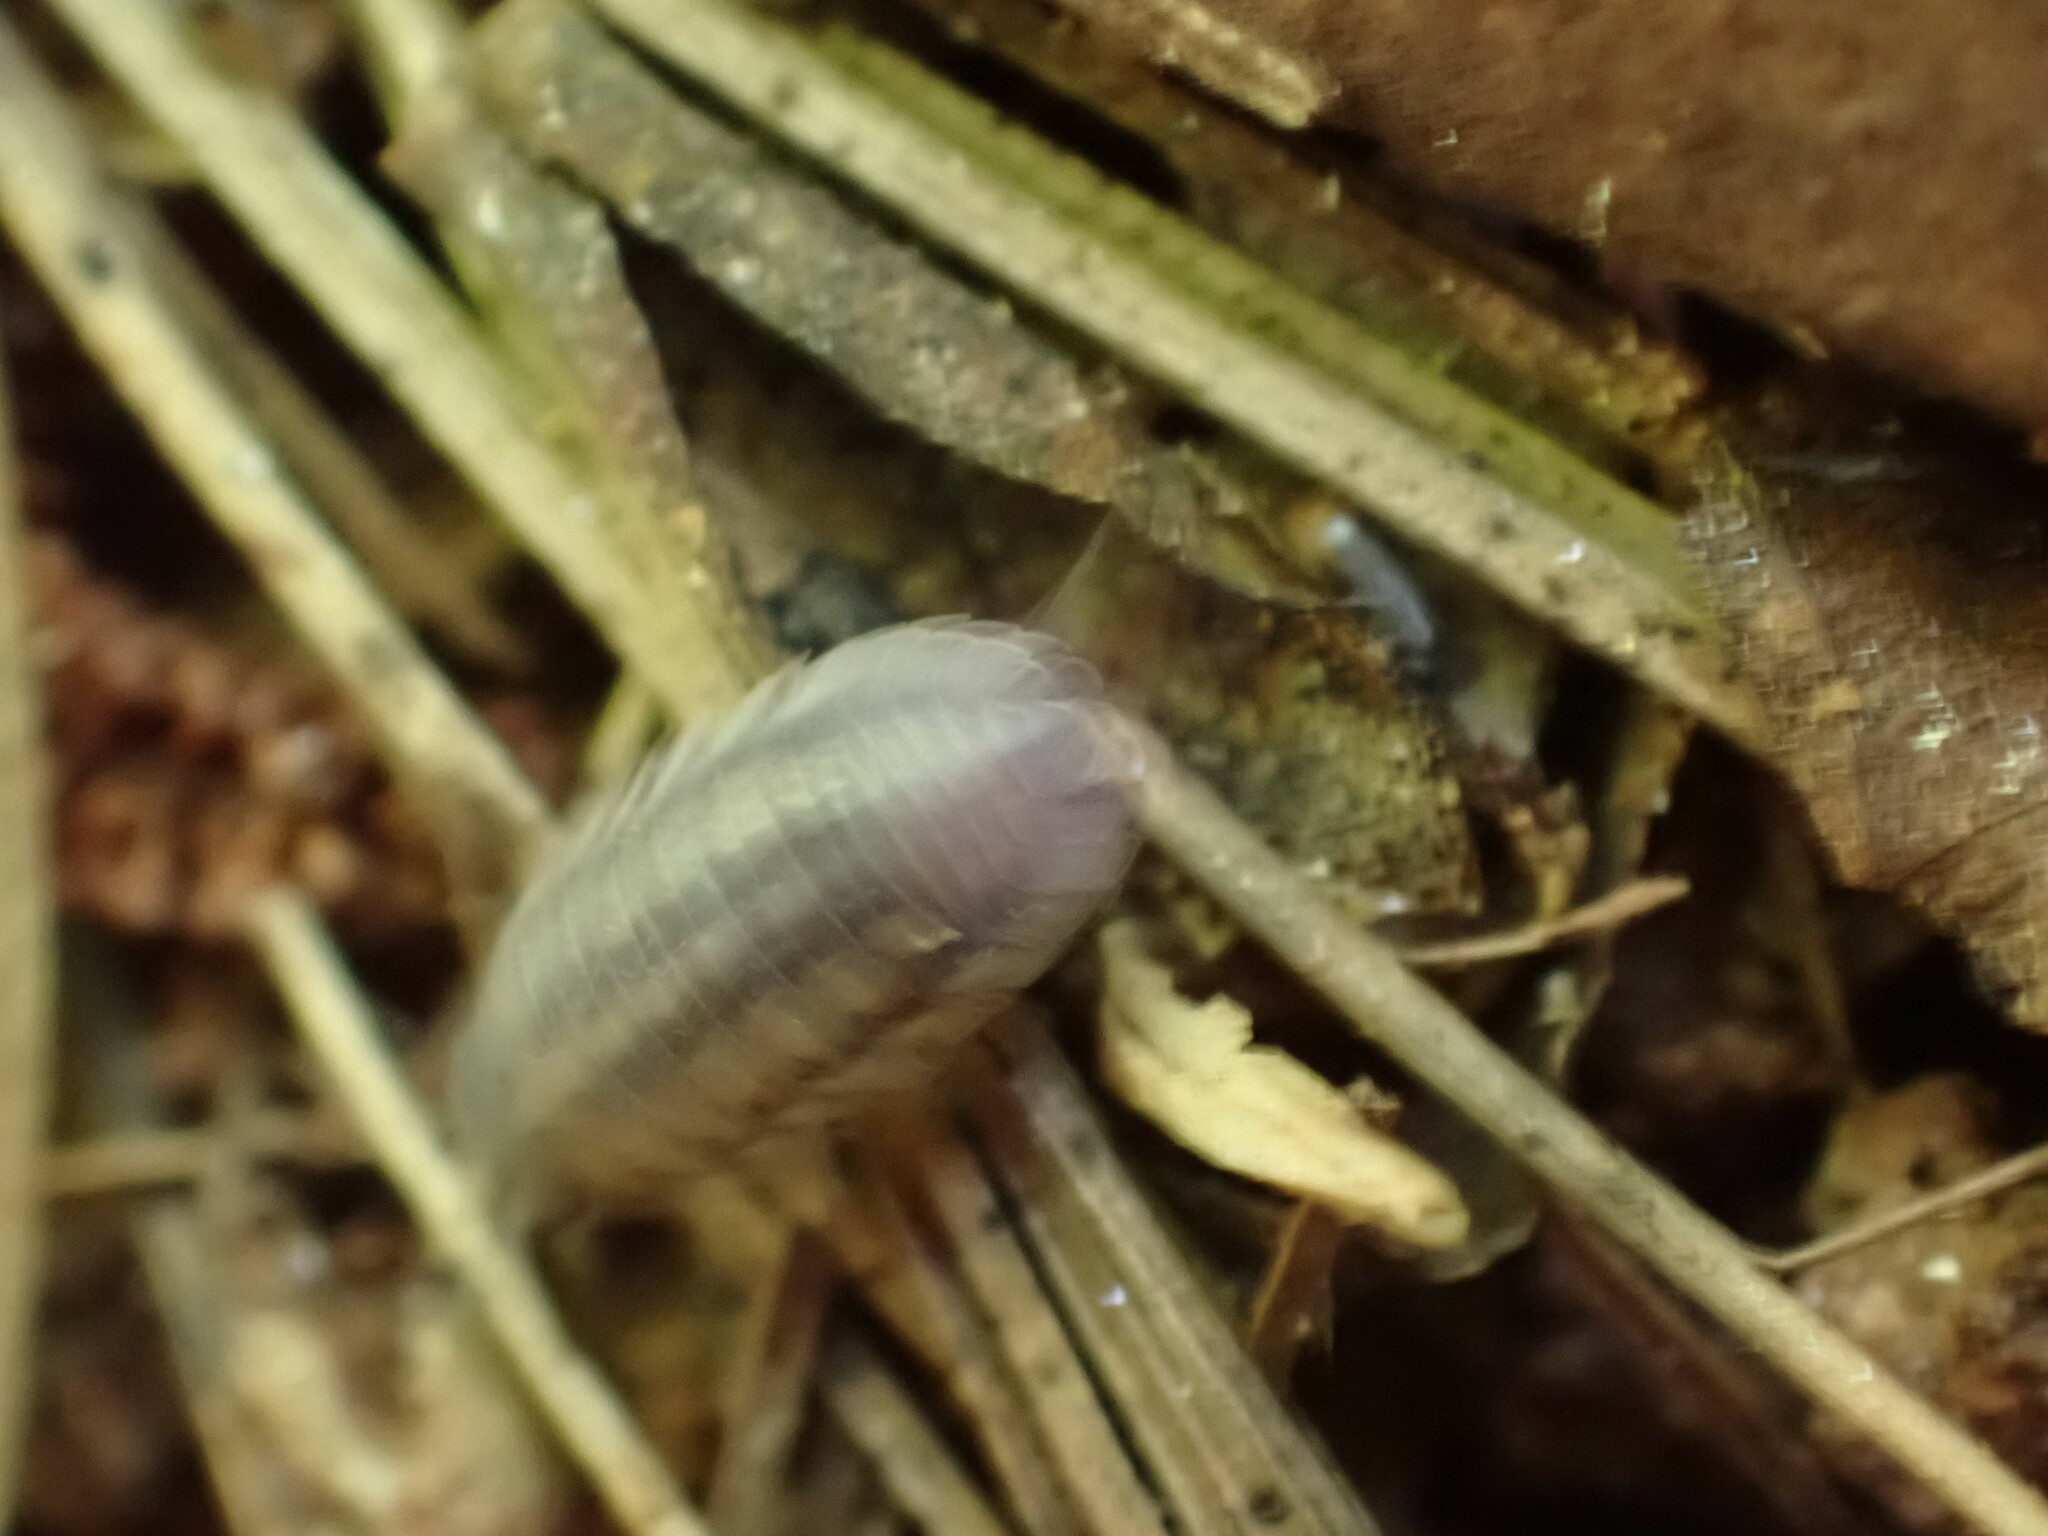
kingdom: Animalia
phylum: Arthropoda
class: Malacostraca
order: Isopoda
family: Armadillidiidae
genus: Armadillidium
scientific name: Armadillidium nasatum
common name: Isopod
